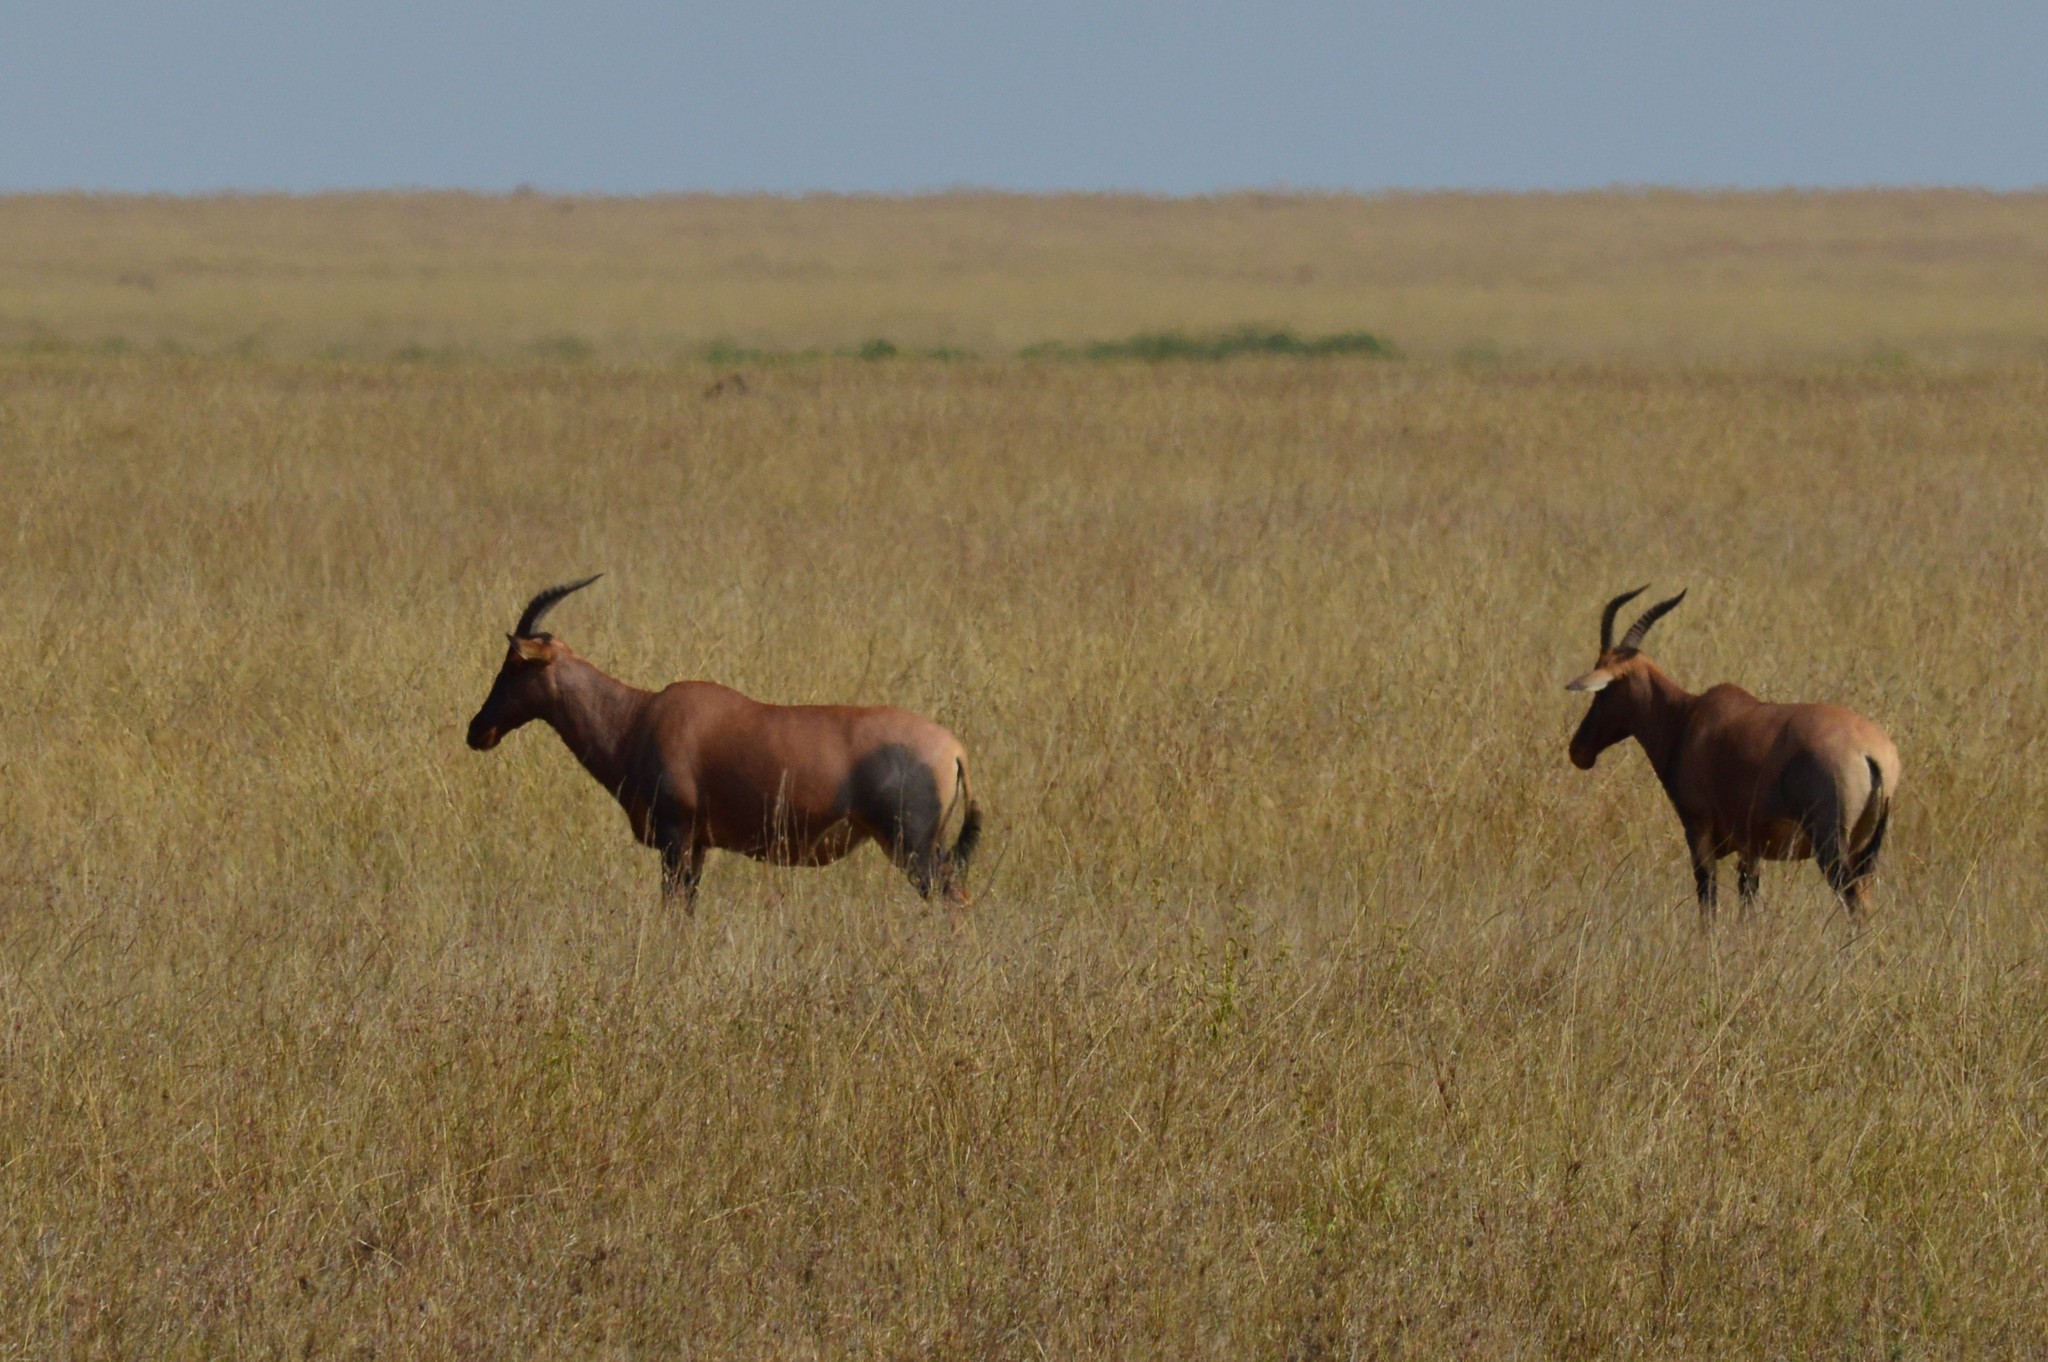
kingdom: Animalia
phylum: Chordata
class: Mammalia
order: Artiodactyla
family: Bovidae
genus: Damaliscus
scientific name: Damaliscus korrigum
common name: Topi
